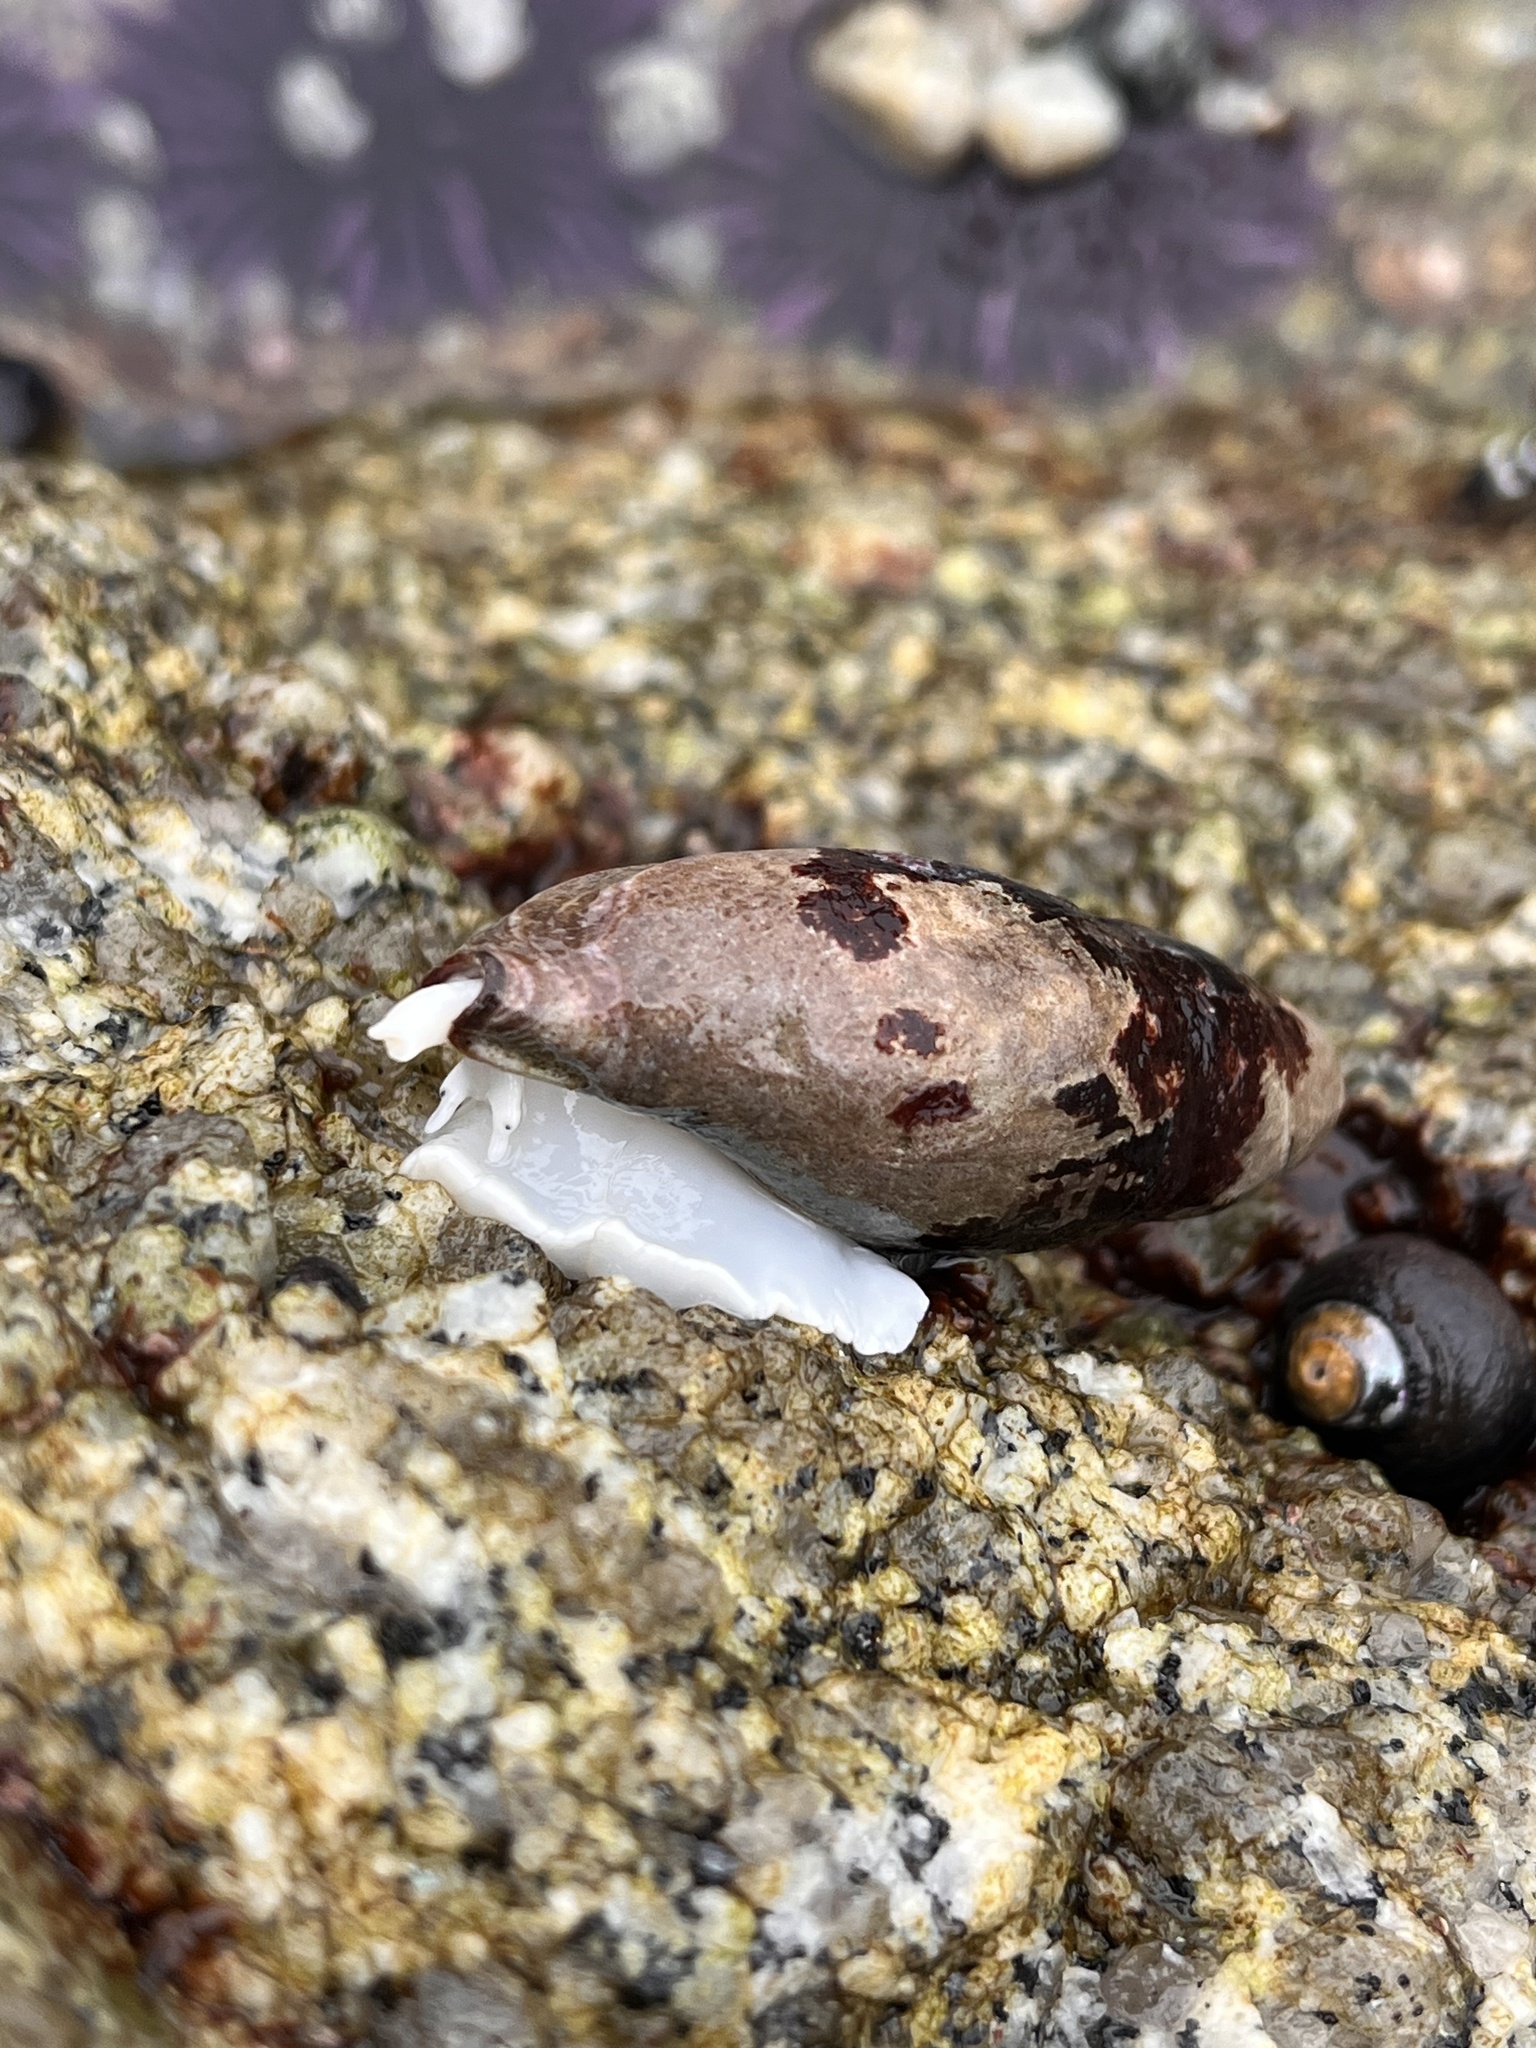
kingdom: Animalia
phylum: Mollusca
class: Gastropoda
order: Neogastropoda
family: Mitridae
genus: Atrimitra
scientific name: Atrimitra idae
